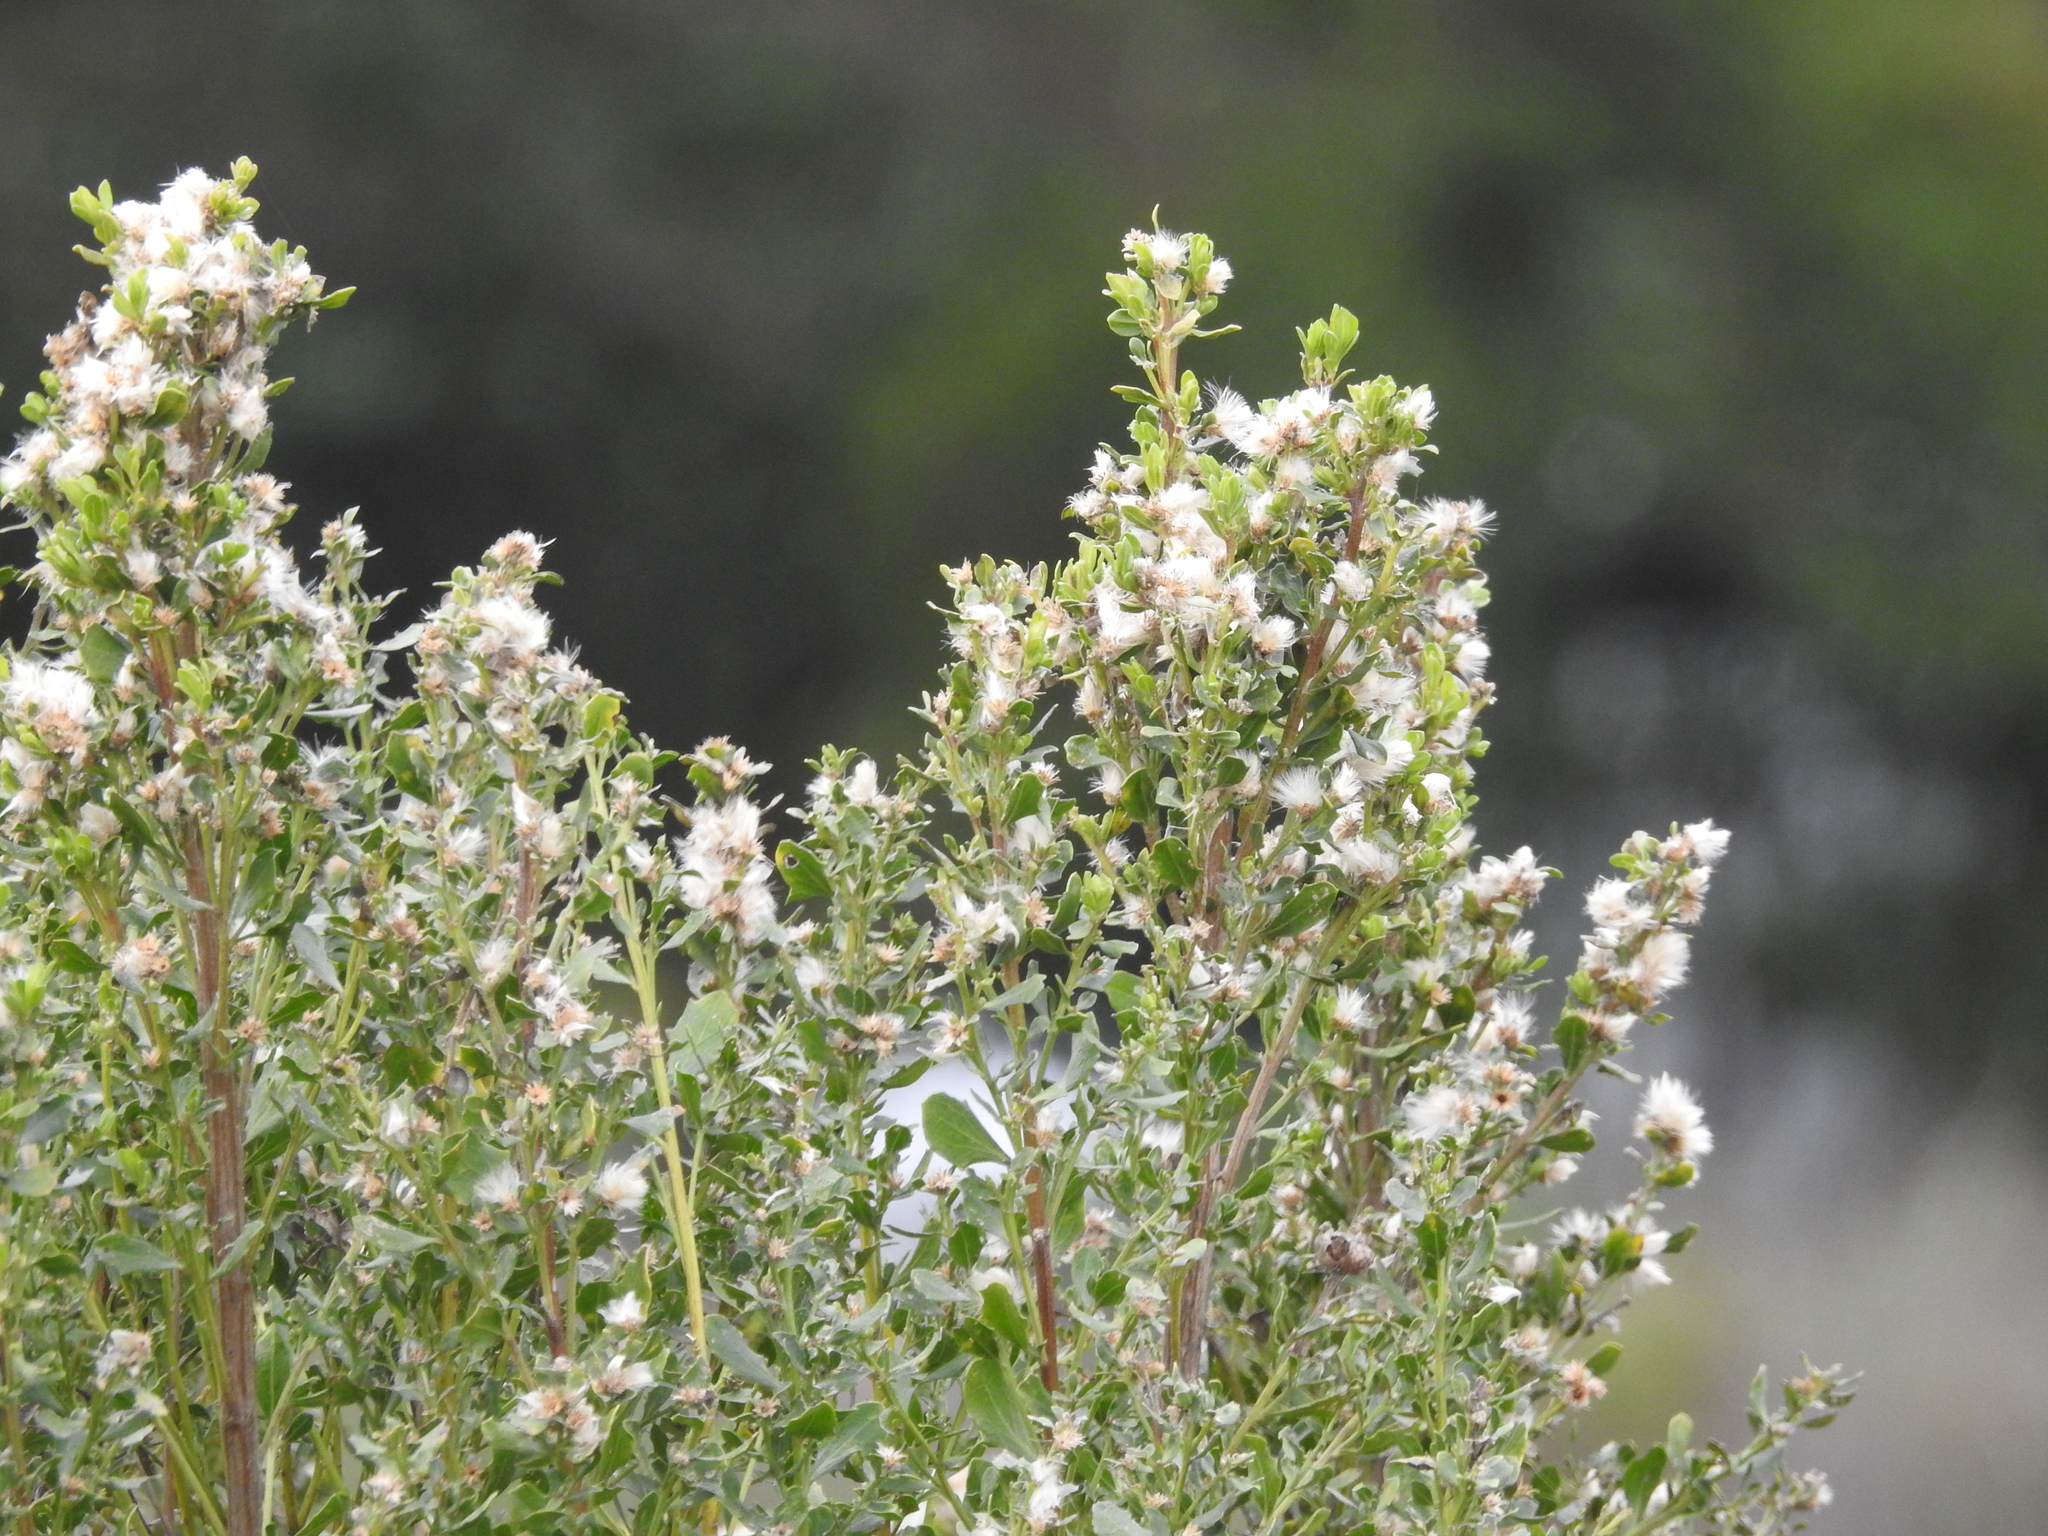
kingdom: Plantae
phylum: Tracheophyta
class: Magnoliopsida
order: Asterales
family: Asteraceae
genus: Baccharis
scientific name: Baccharis pilularis
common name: Coyotebrush
